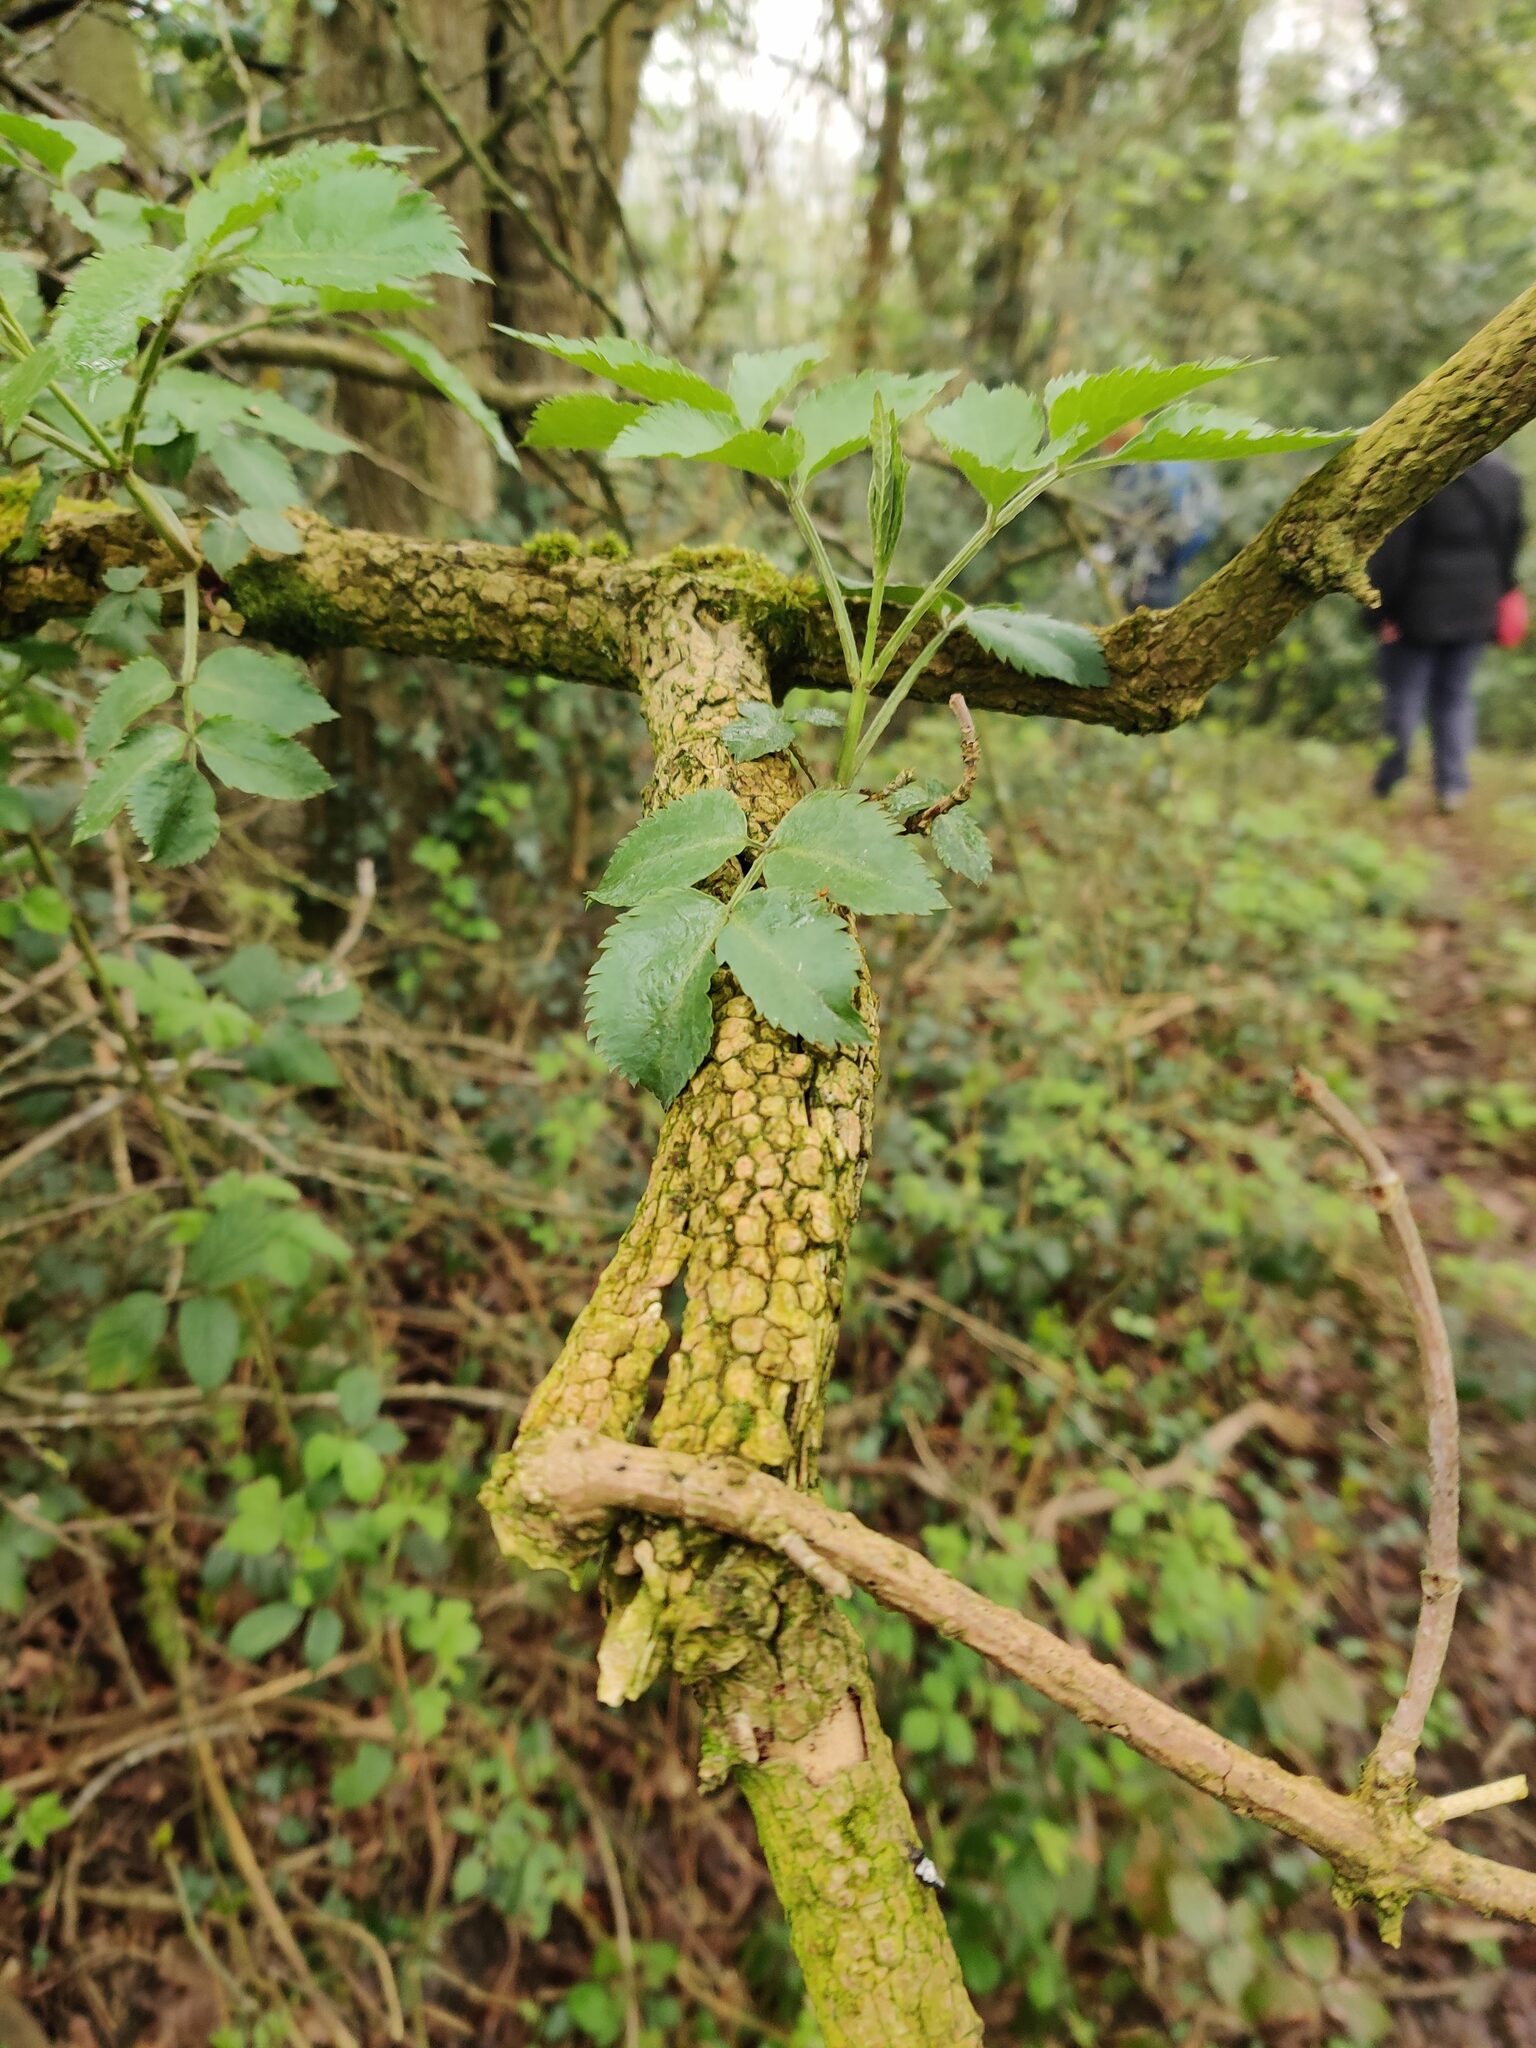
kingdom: Plantae
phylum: Tracheophyta
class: Magnoliopsida
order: Dipsacales
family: Viburnaceae
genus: Sambucus
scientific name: Sambucus nigra
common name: Elder
